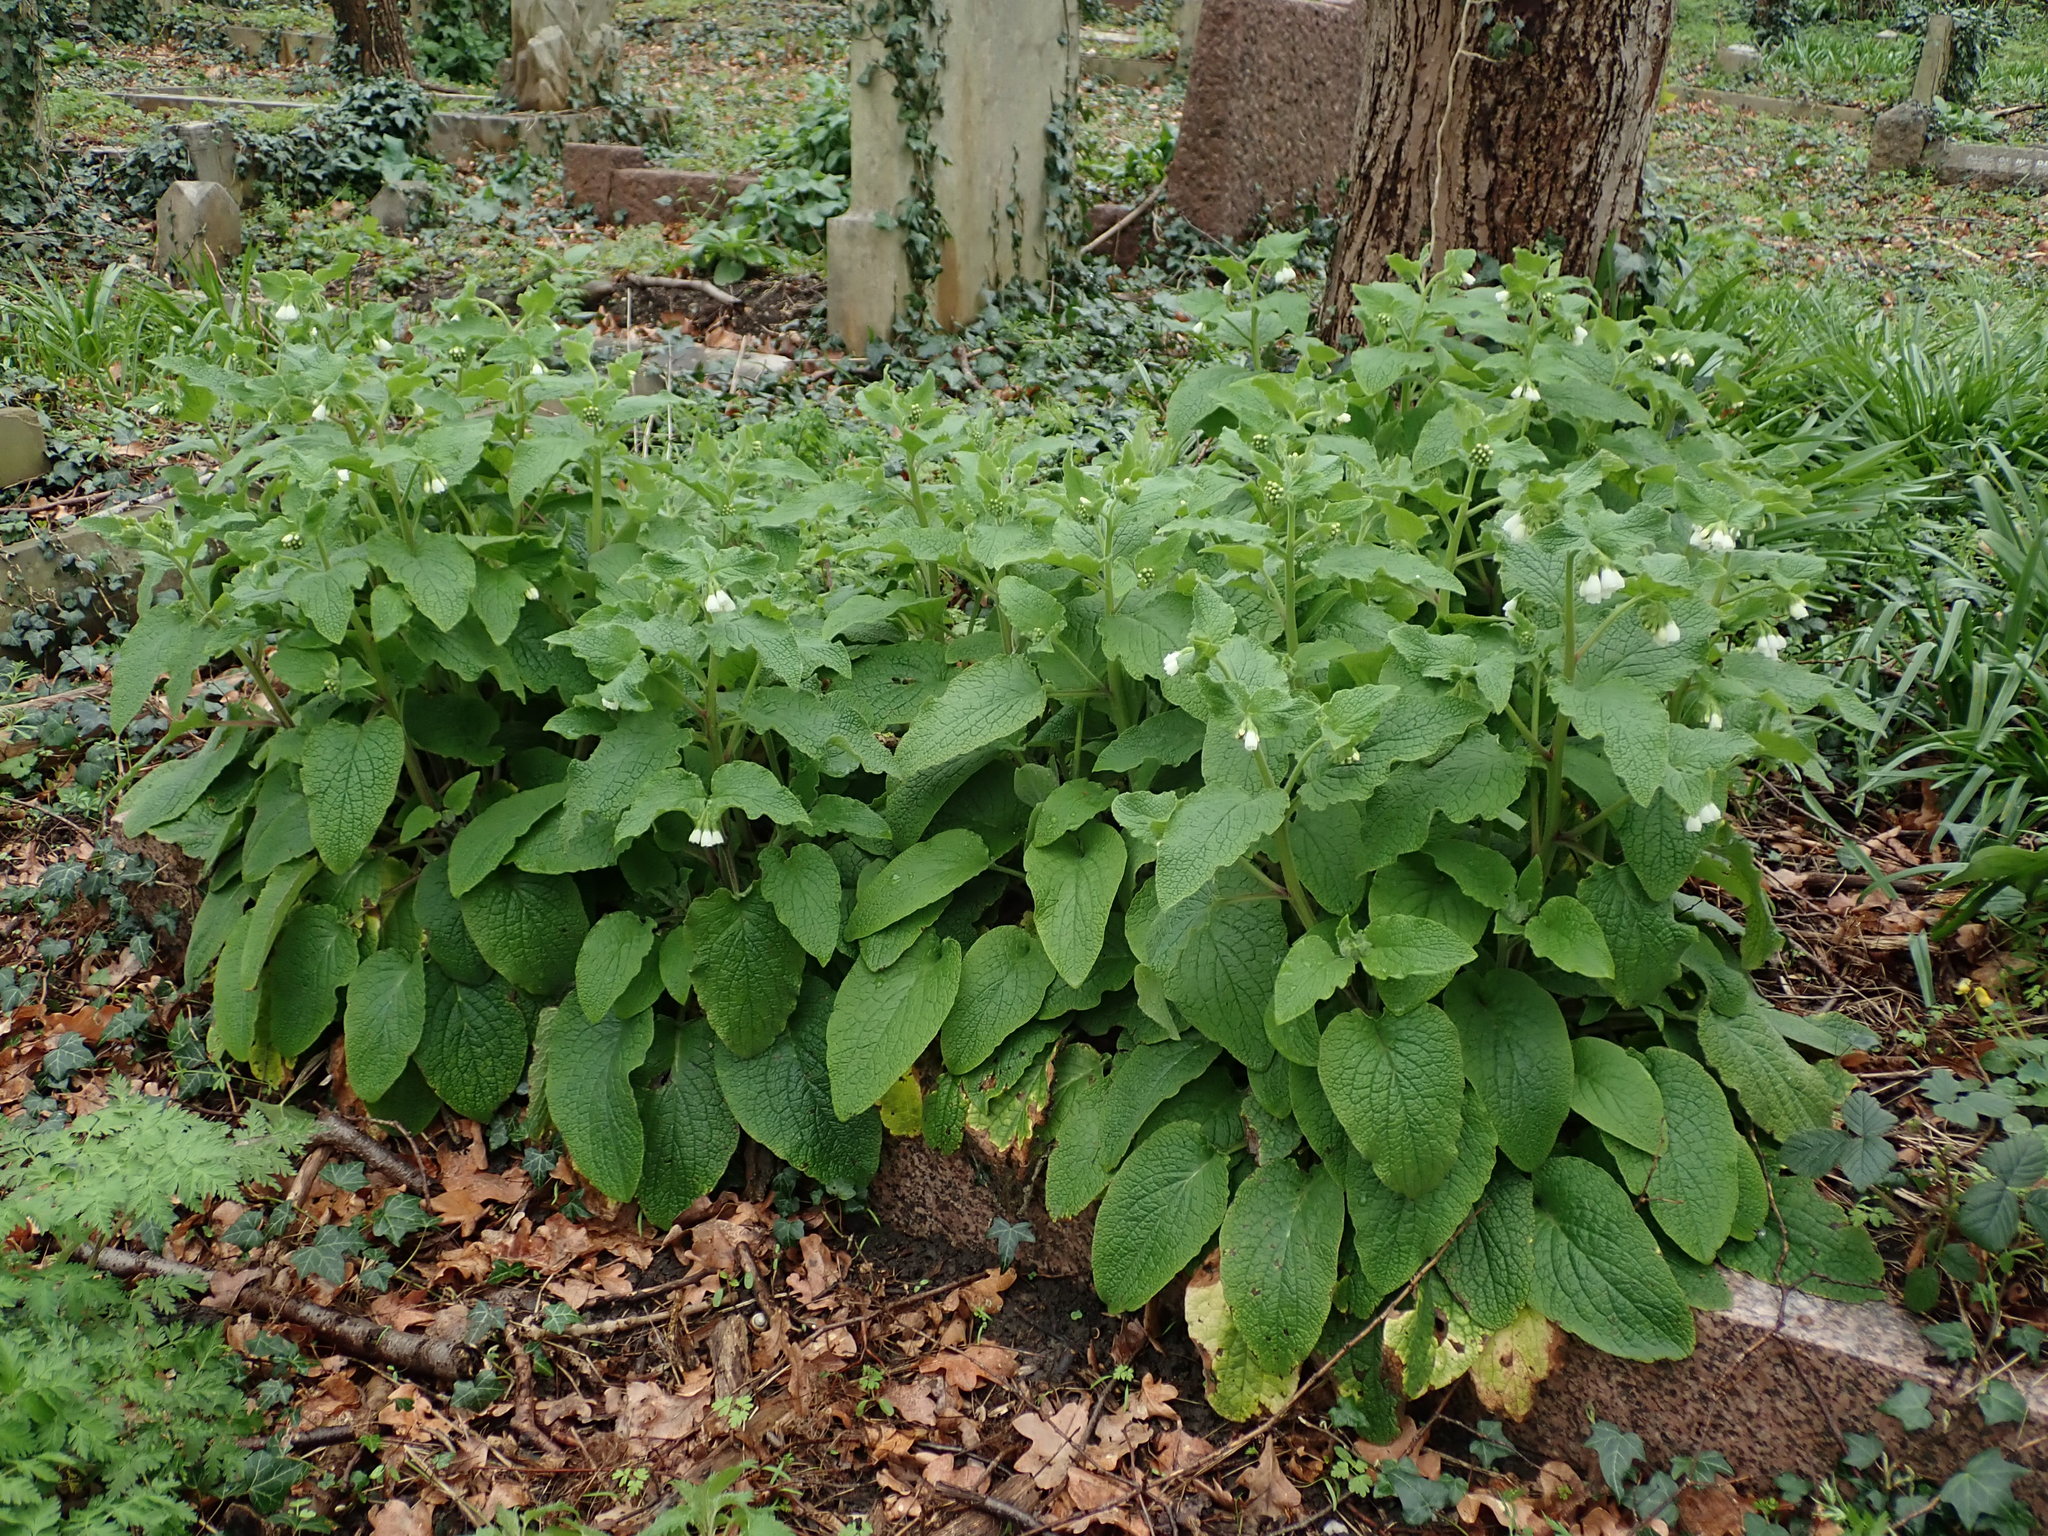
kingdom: Plantae
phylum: Tracheophyta
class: Magnoliopsida
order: Boraginales
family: Boraginaceae
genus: Symphytum
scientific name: Symphytum orientale
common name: White comfrey
